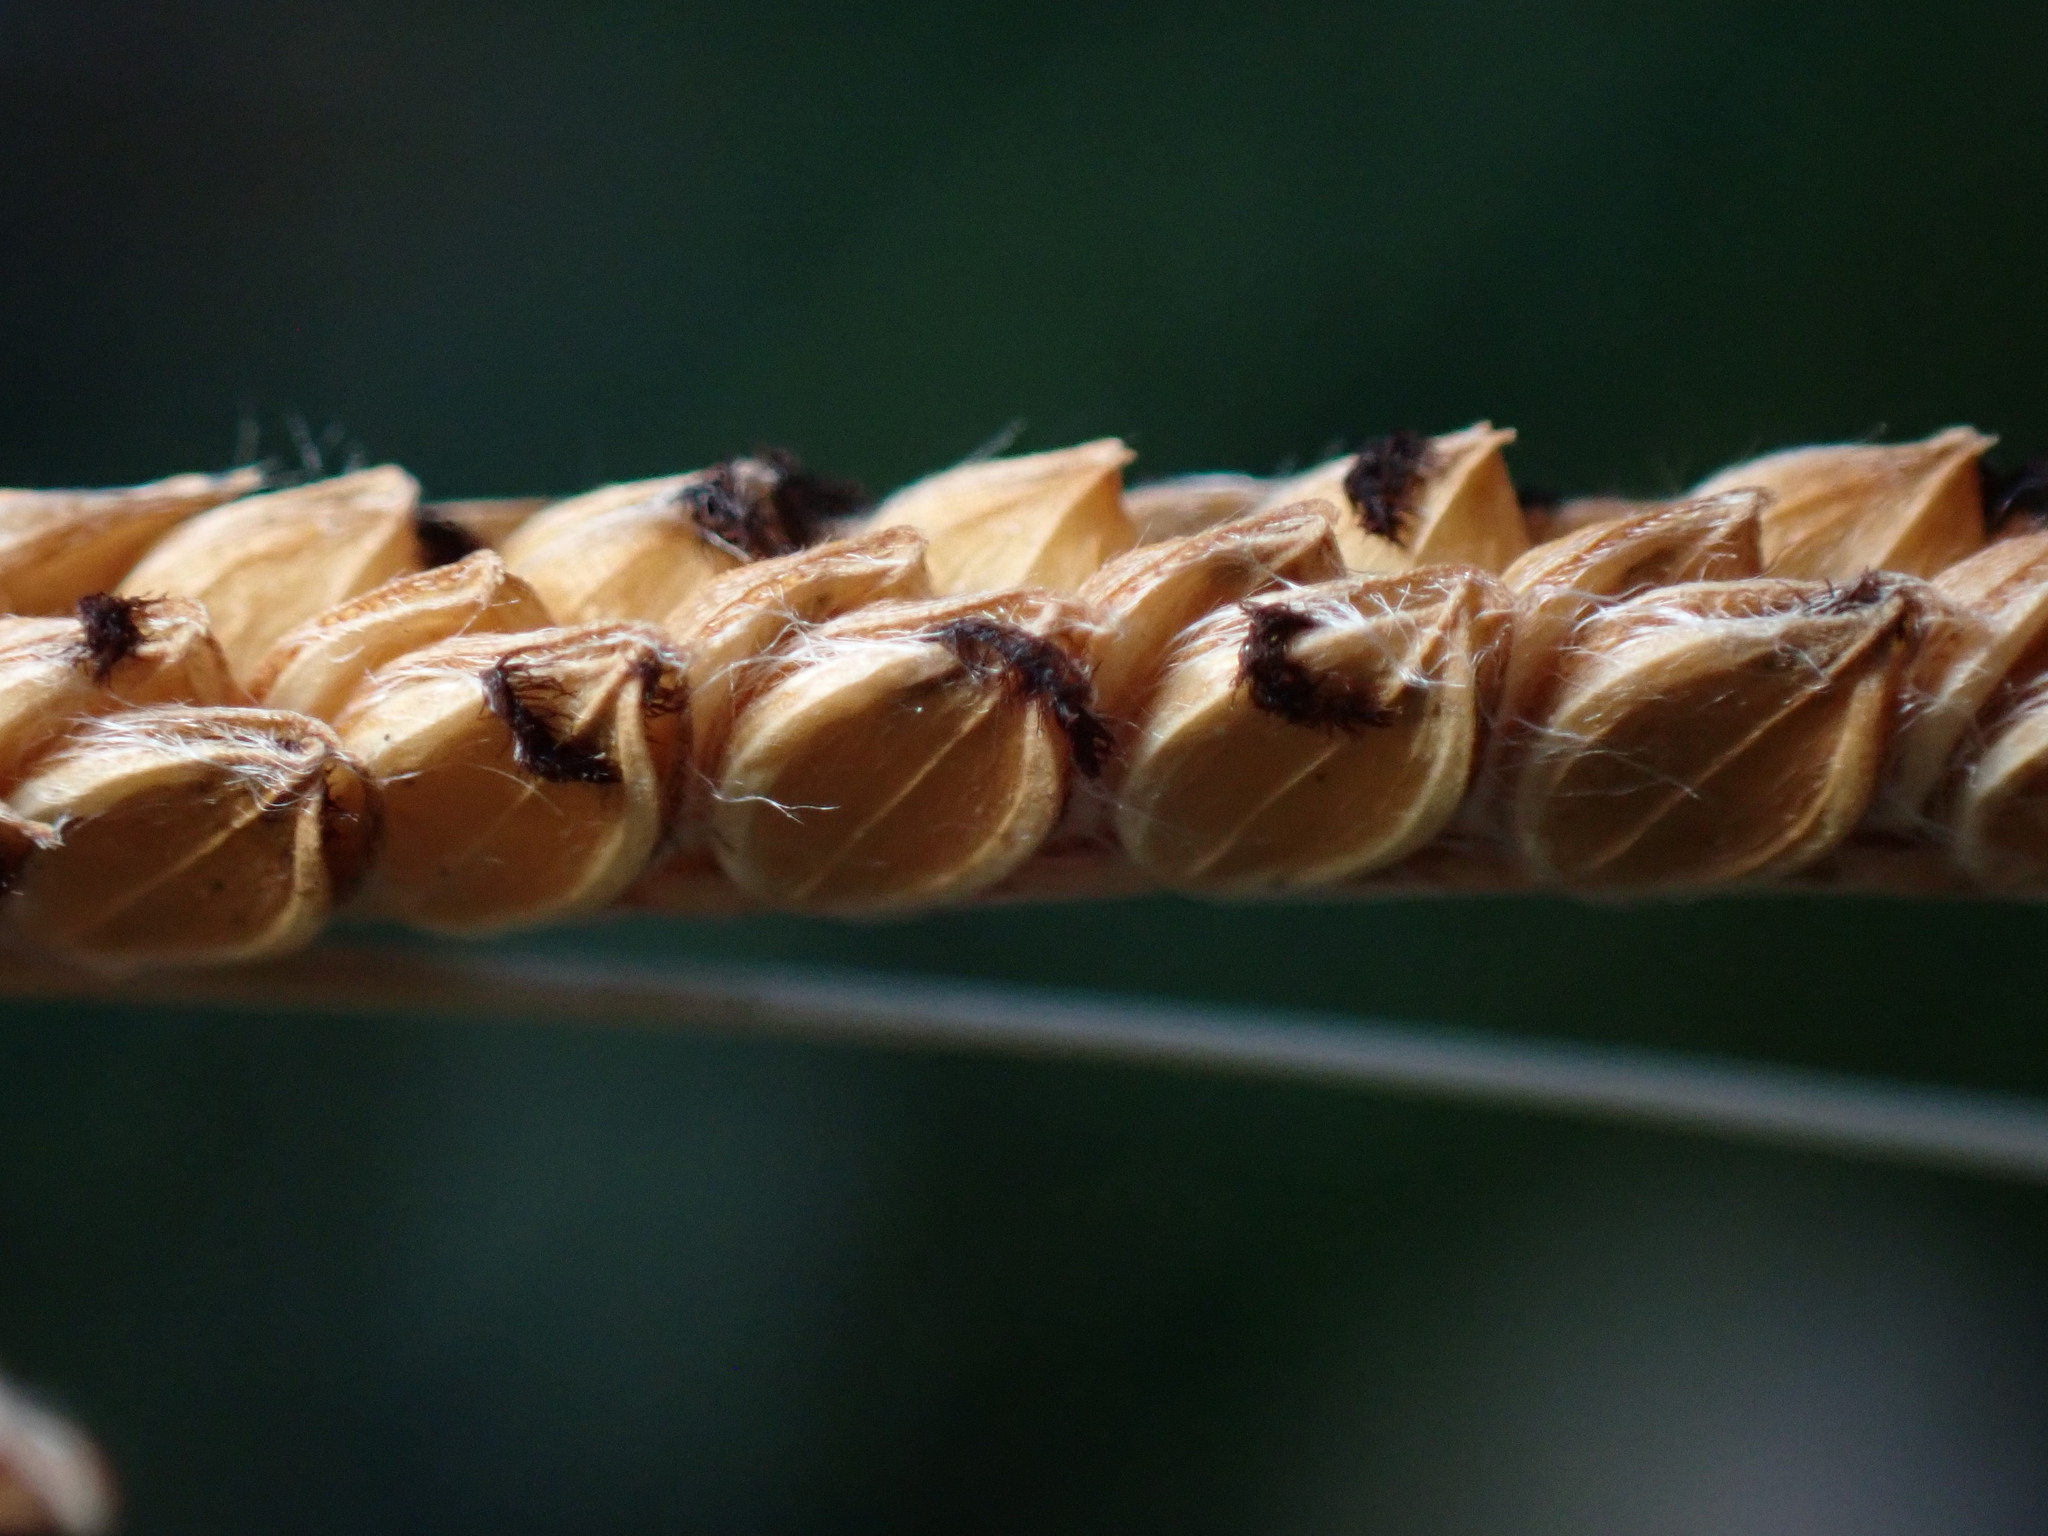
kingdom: Plantae
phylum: Tracheophyta
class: Liliopsida
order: Poales
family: Poaceae
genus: Paspalum
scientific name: Paspalum dilatatum
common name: Dallisgrass
